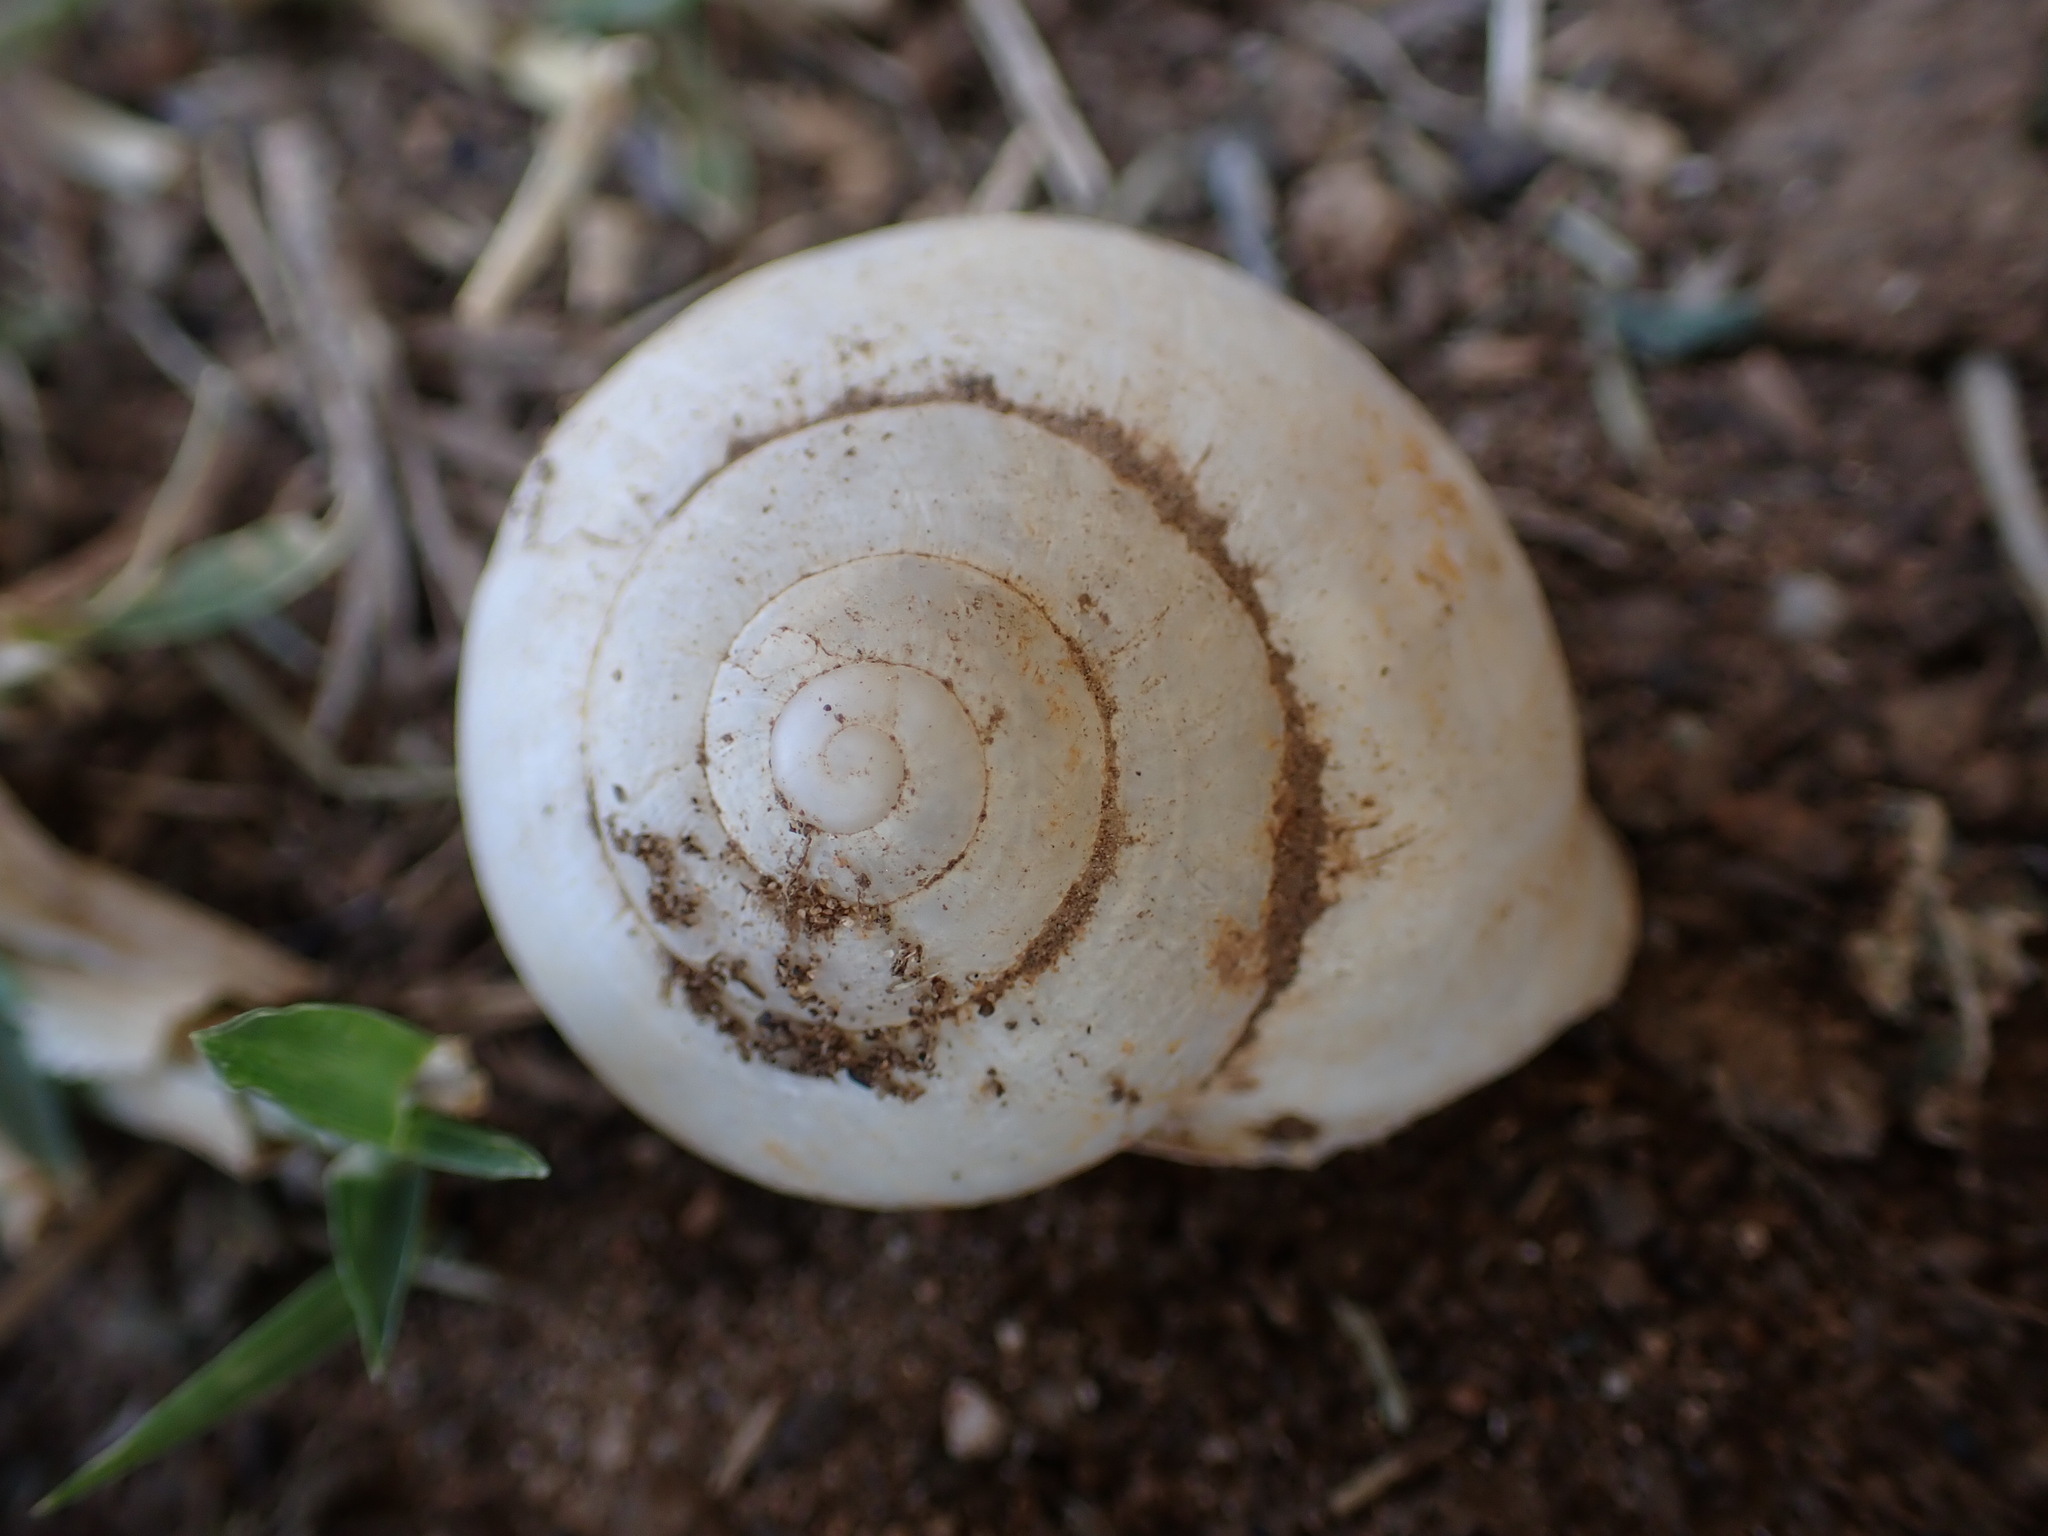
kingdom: Animalia
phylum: Mollusca
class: Gastropoda
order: Stylommatophora
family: Helicidae
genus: Eobania
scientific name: Eobania vermiculata
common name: Chocolateband snail
